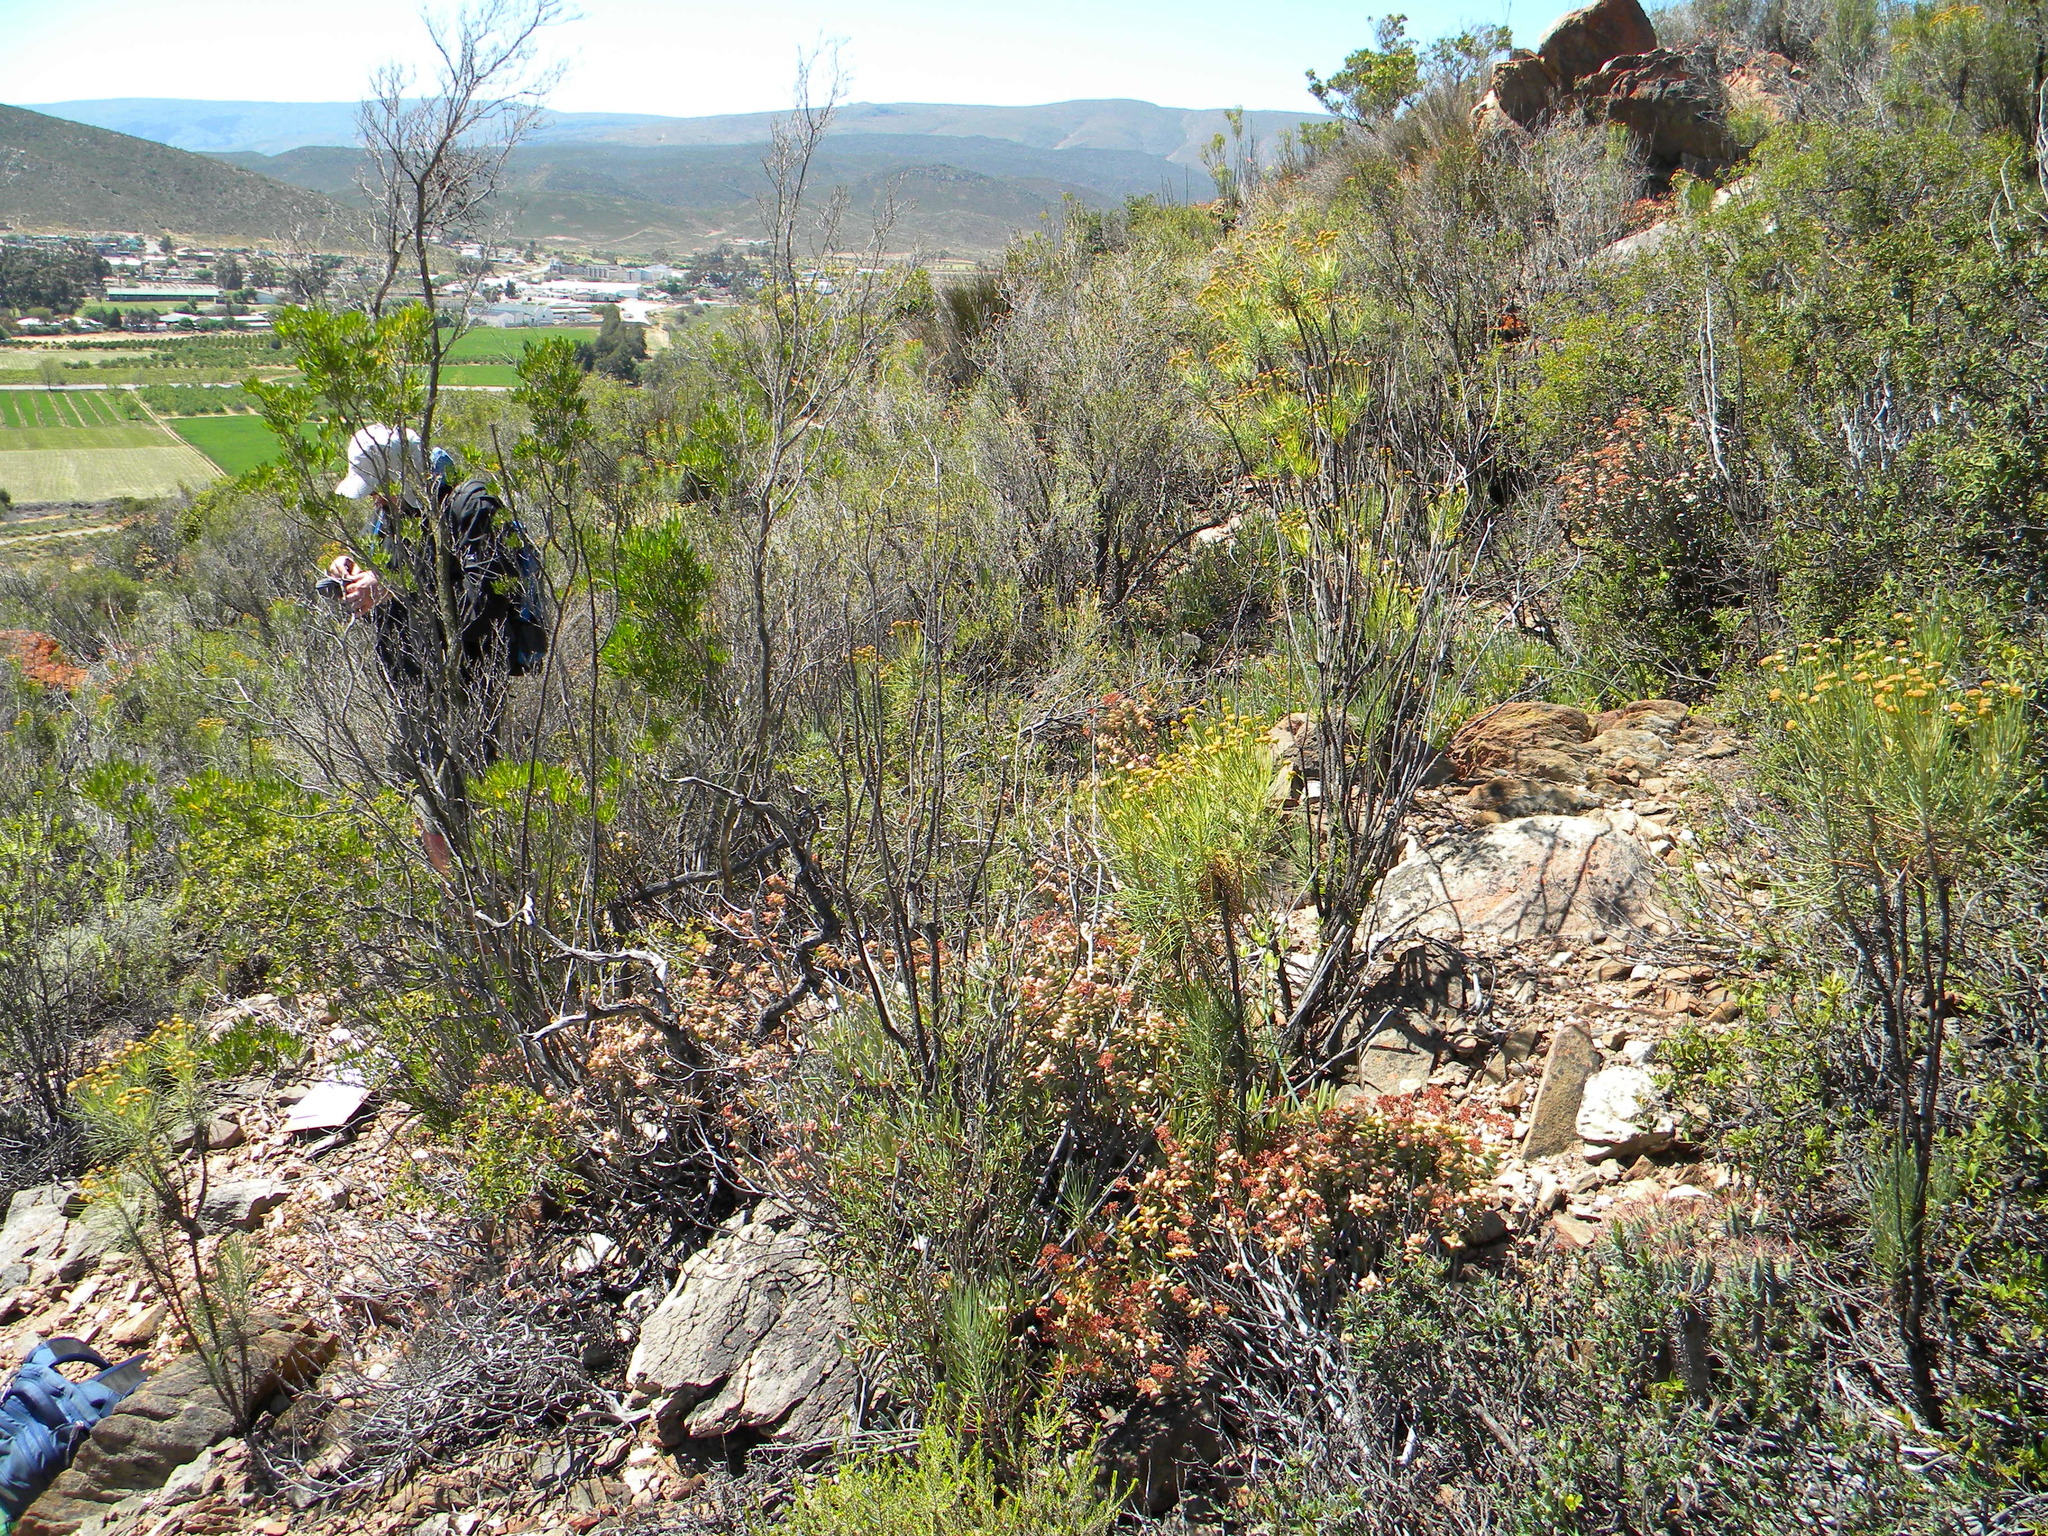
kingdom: Plantae
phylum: Tracheophyta
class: Magnoliopsida
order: Saxifragales
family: Crassulaceae
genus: Crassula
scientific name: Crassula rupestris
